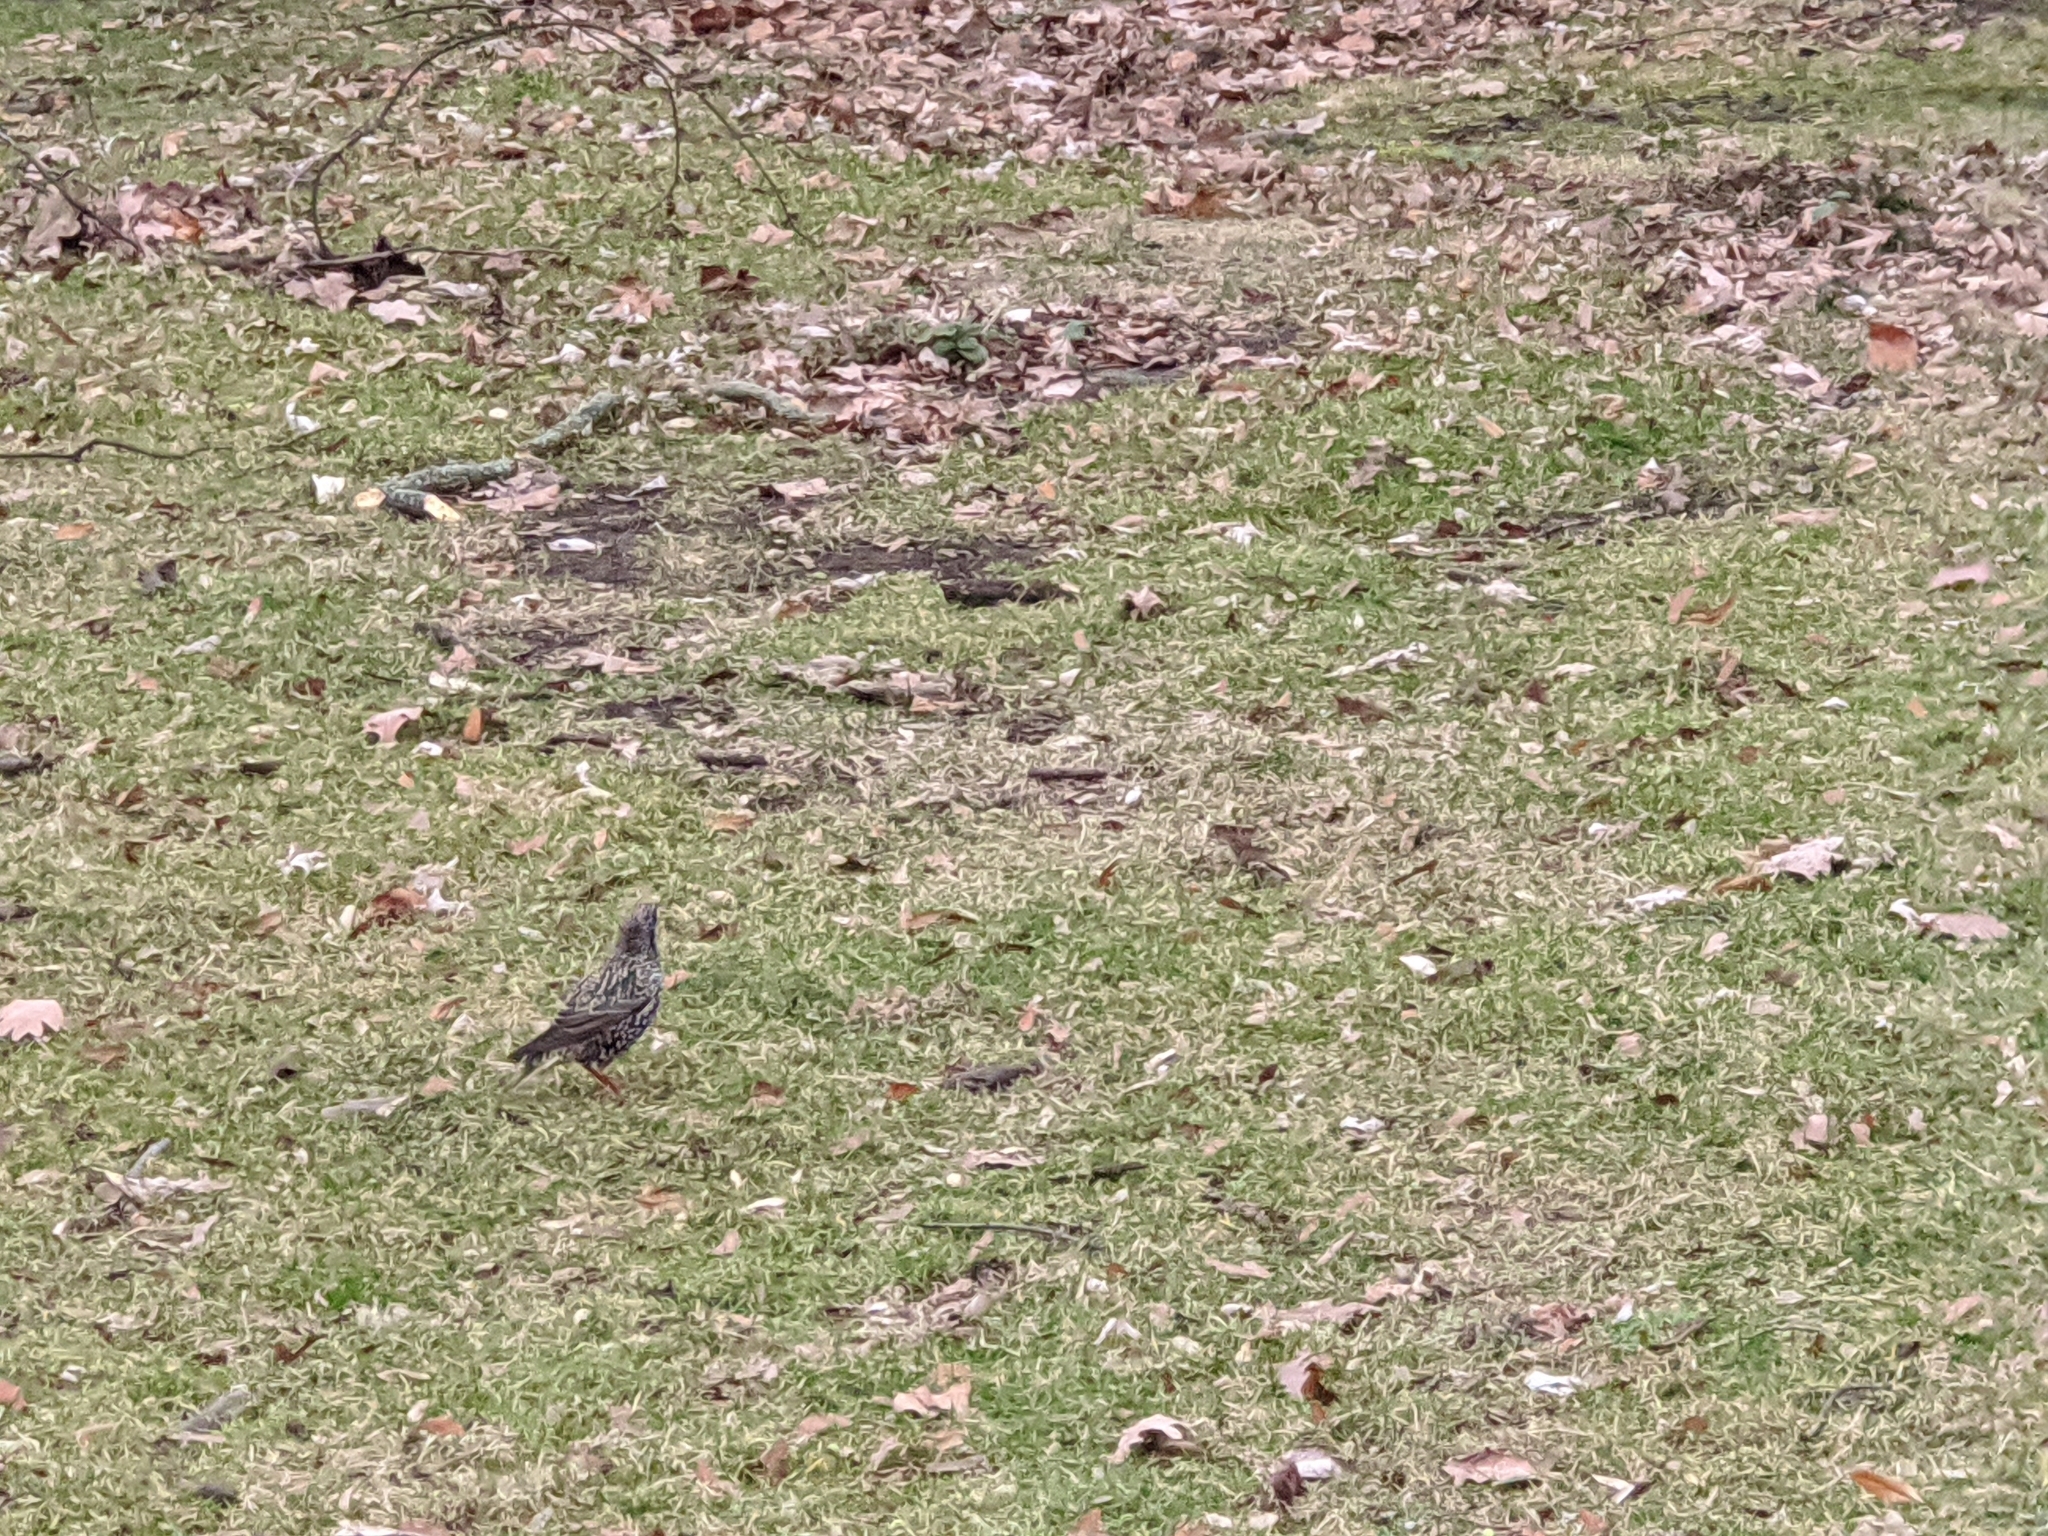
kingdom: Animalia
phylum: Chordata
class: Aves
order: Passeriformes
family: Sturnidae
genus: Sturnus
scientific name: Sturnus vulgaris
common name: Common starling
